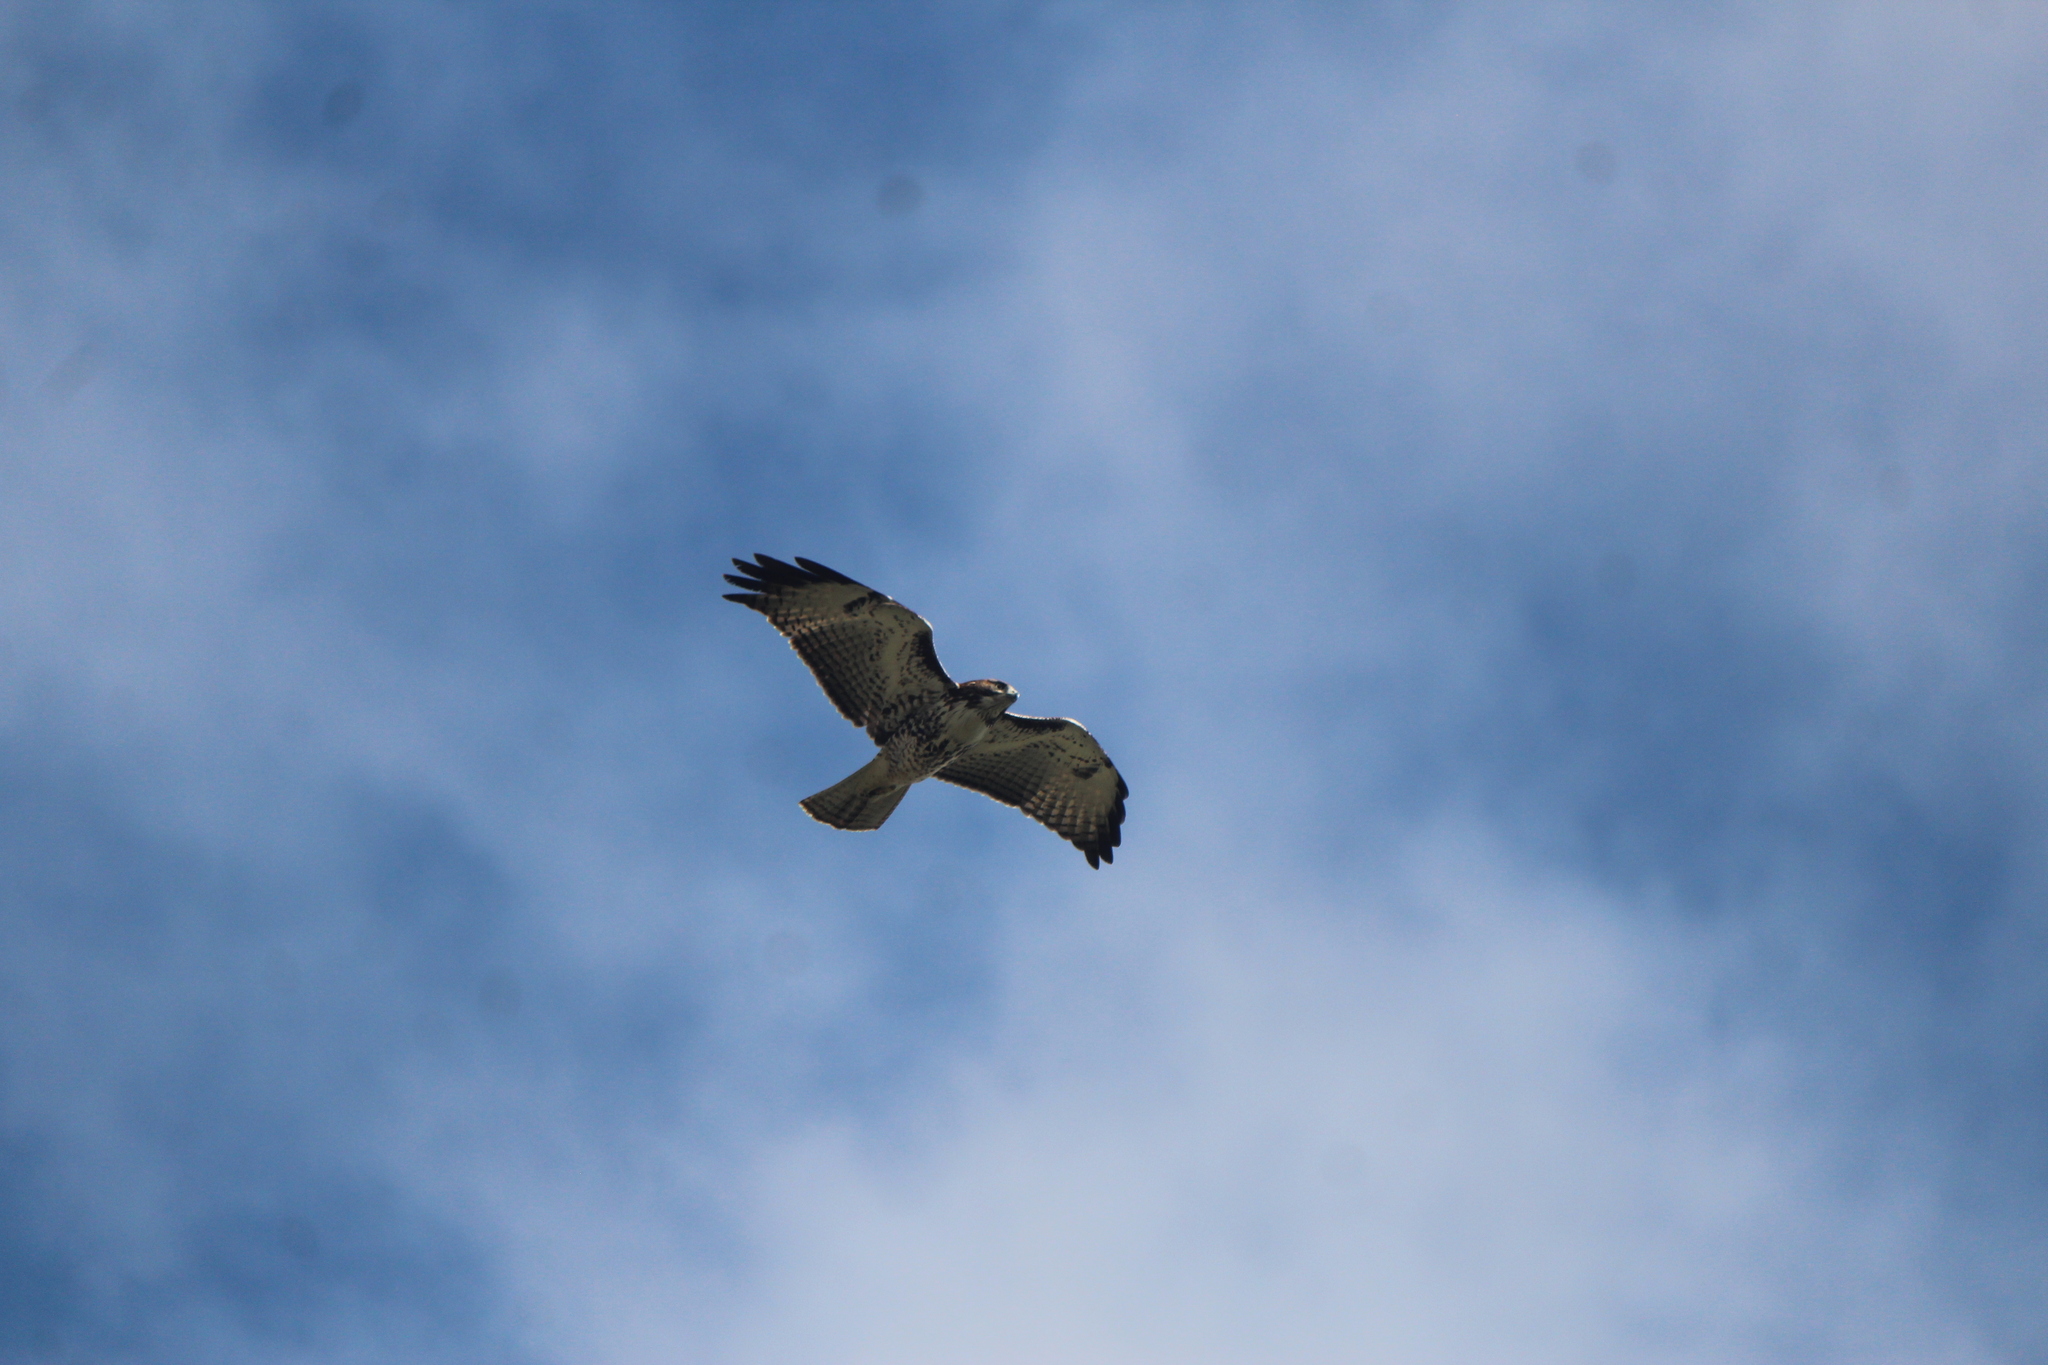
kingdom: Animalia
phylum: Chordata
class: Aves
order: Accipitriformes
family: Accipitridae
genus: Buteo
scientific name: Buteo jamaicensis
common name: Red-tailed hawk
